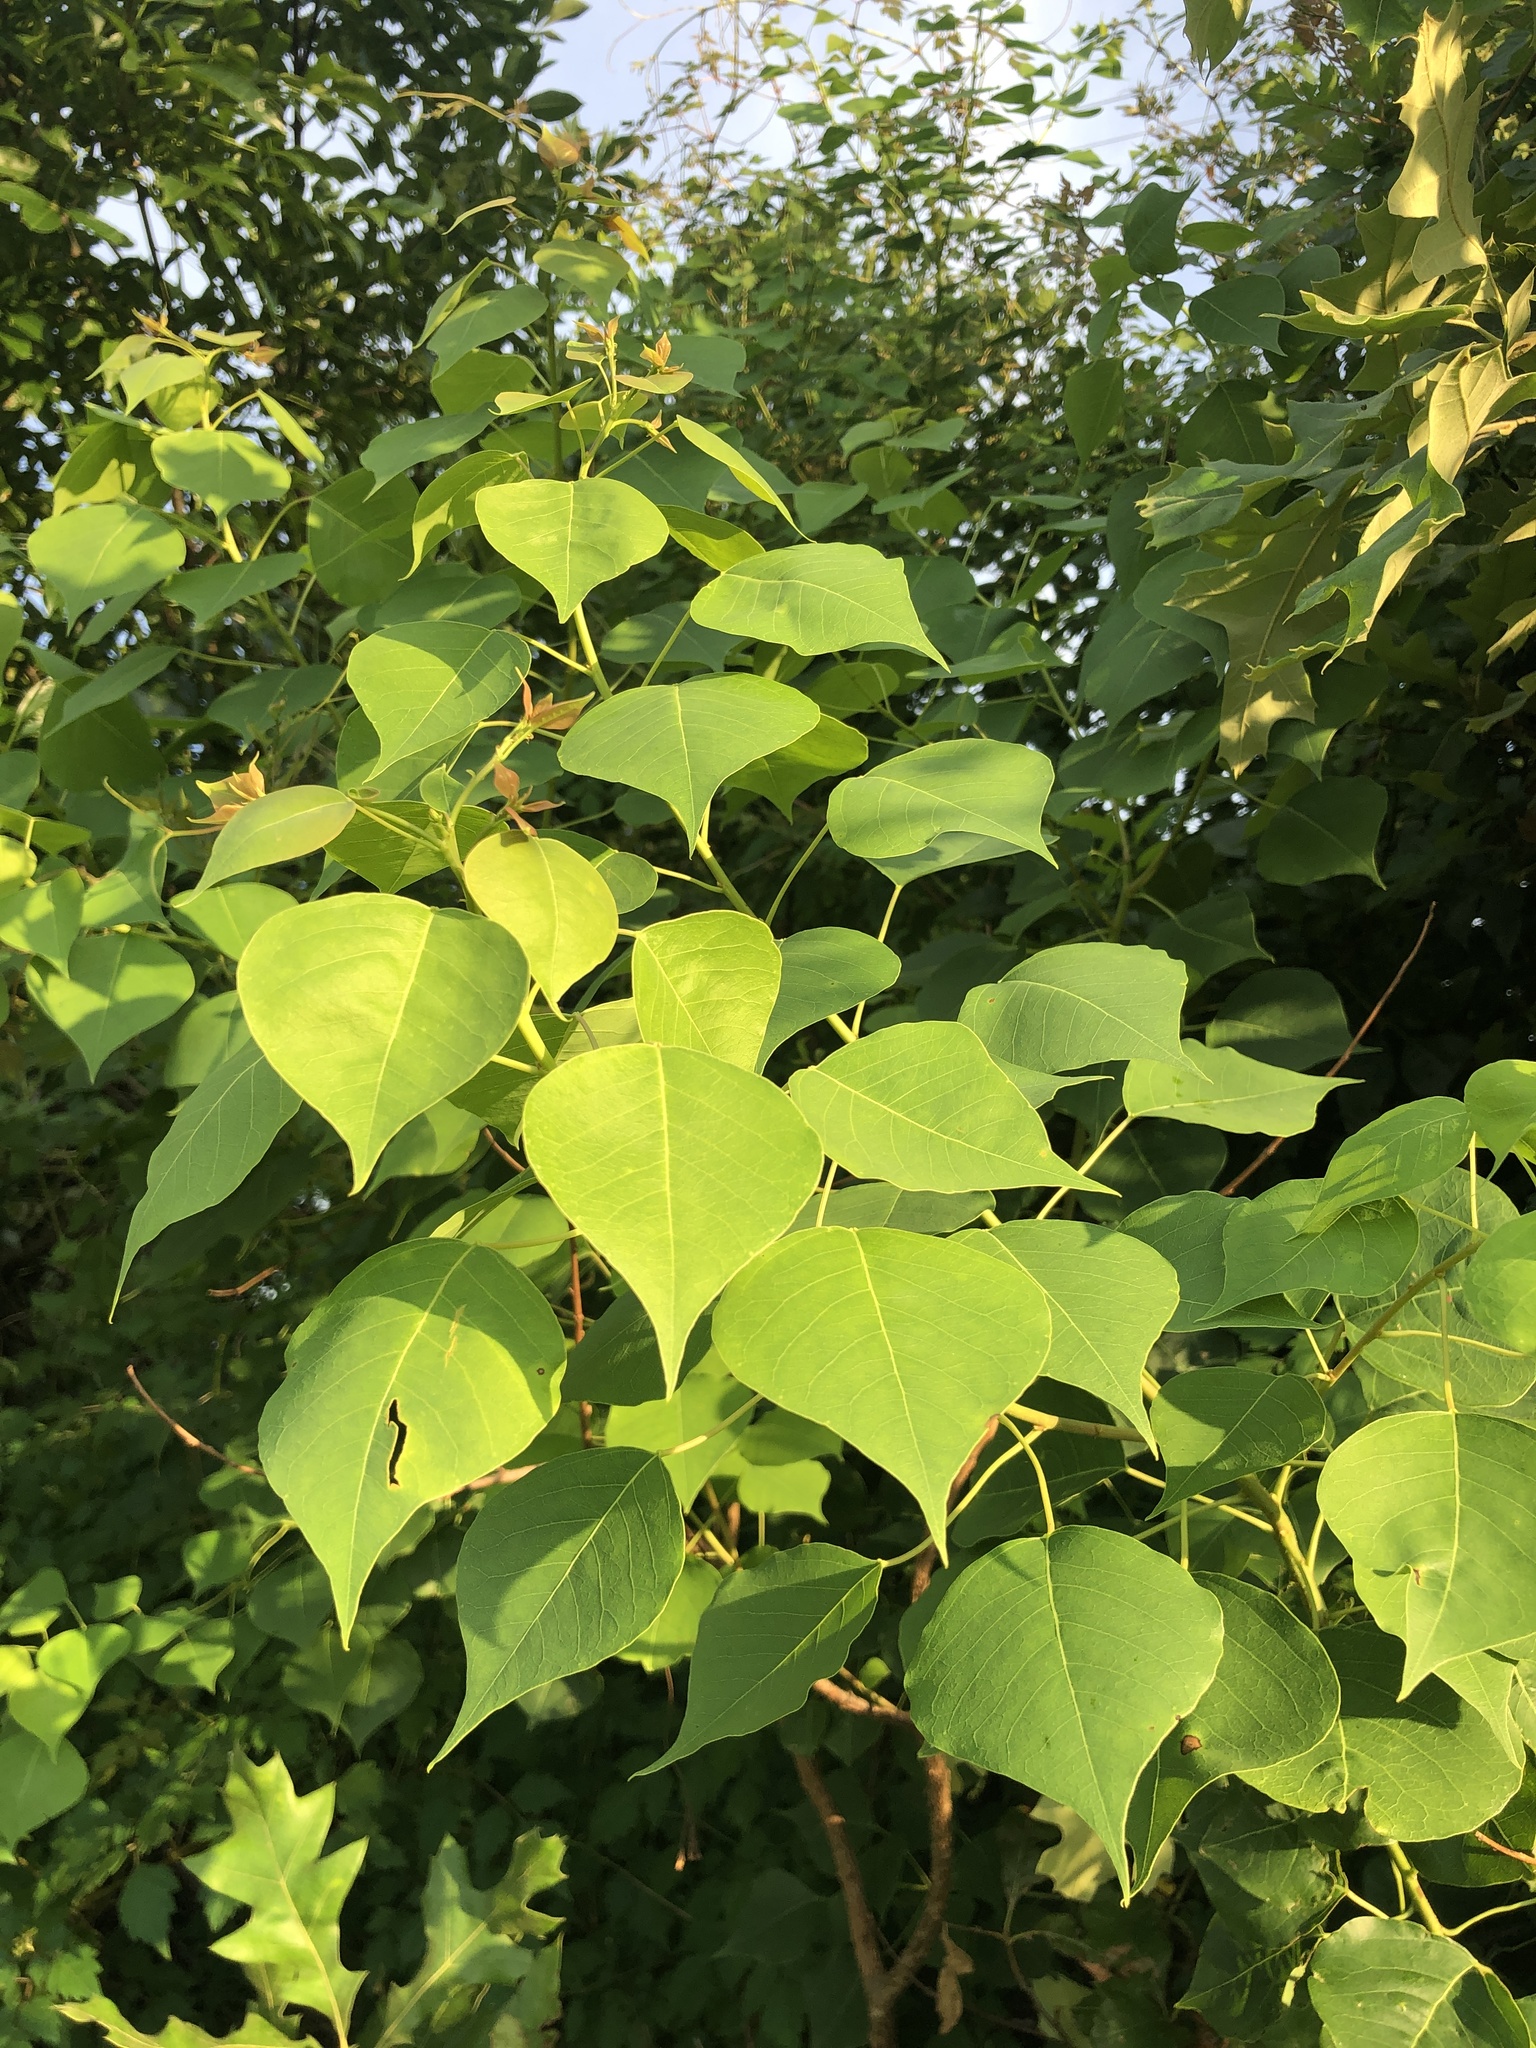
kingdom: Plantae
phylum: Tracheophyta
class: Magnoliopsida
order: Malpighiales
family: Euphorbiaceae
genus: Triadica
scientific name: Triadica sebifera
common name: Chinese tallow
